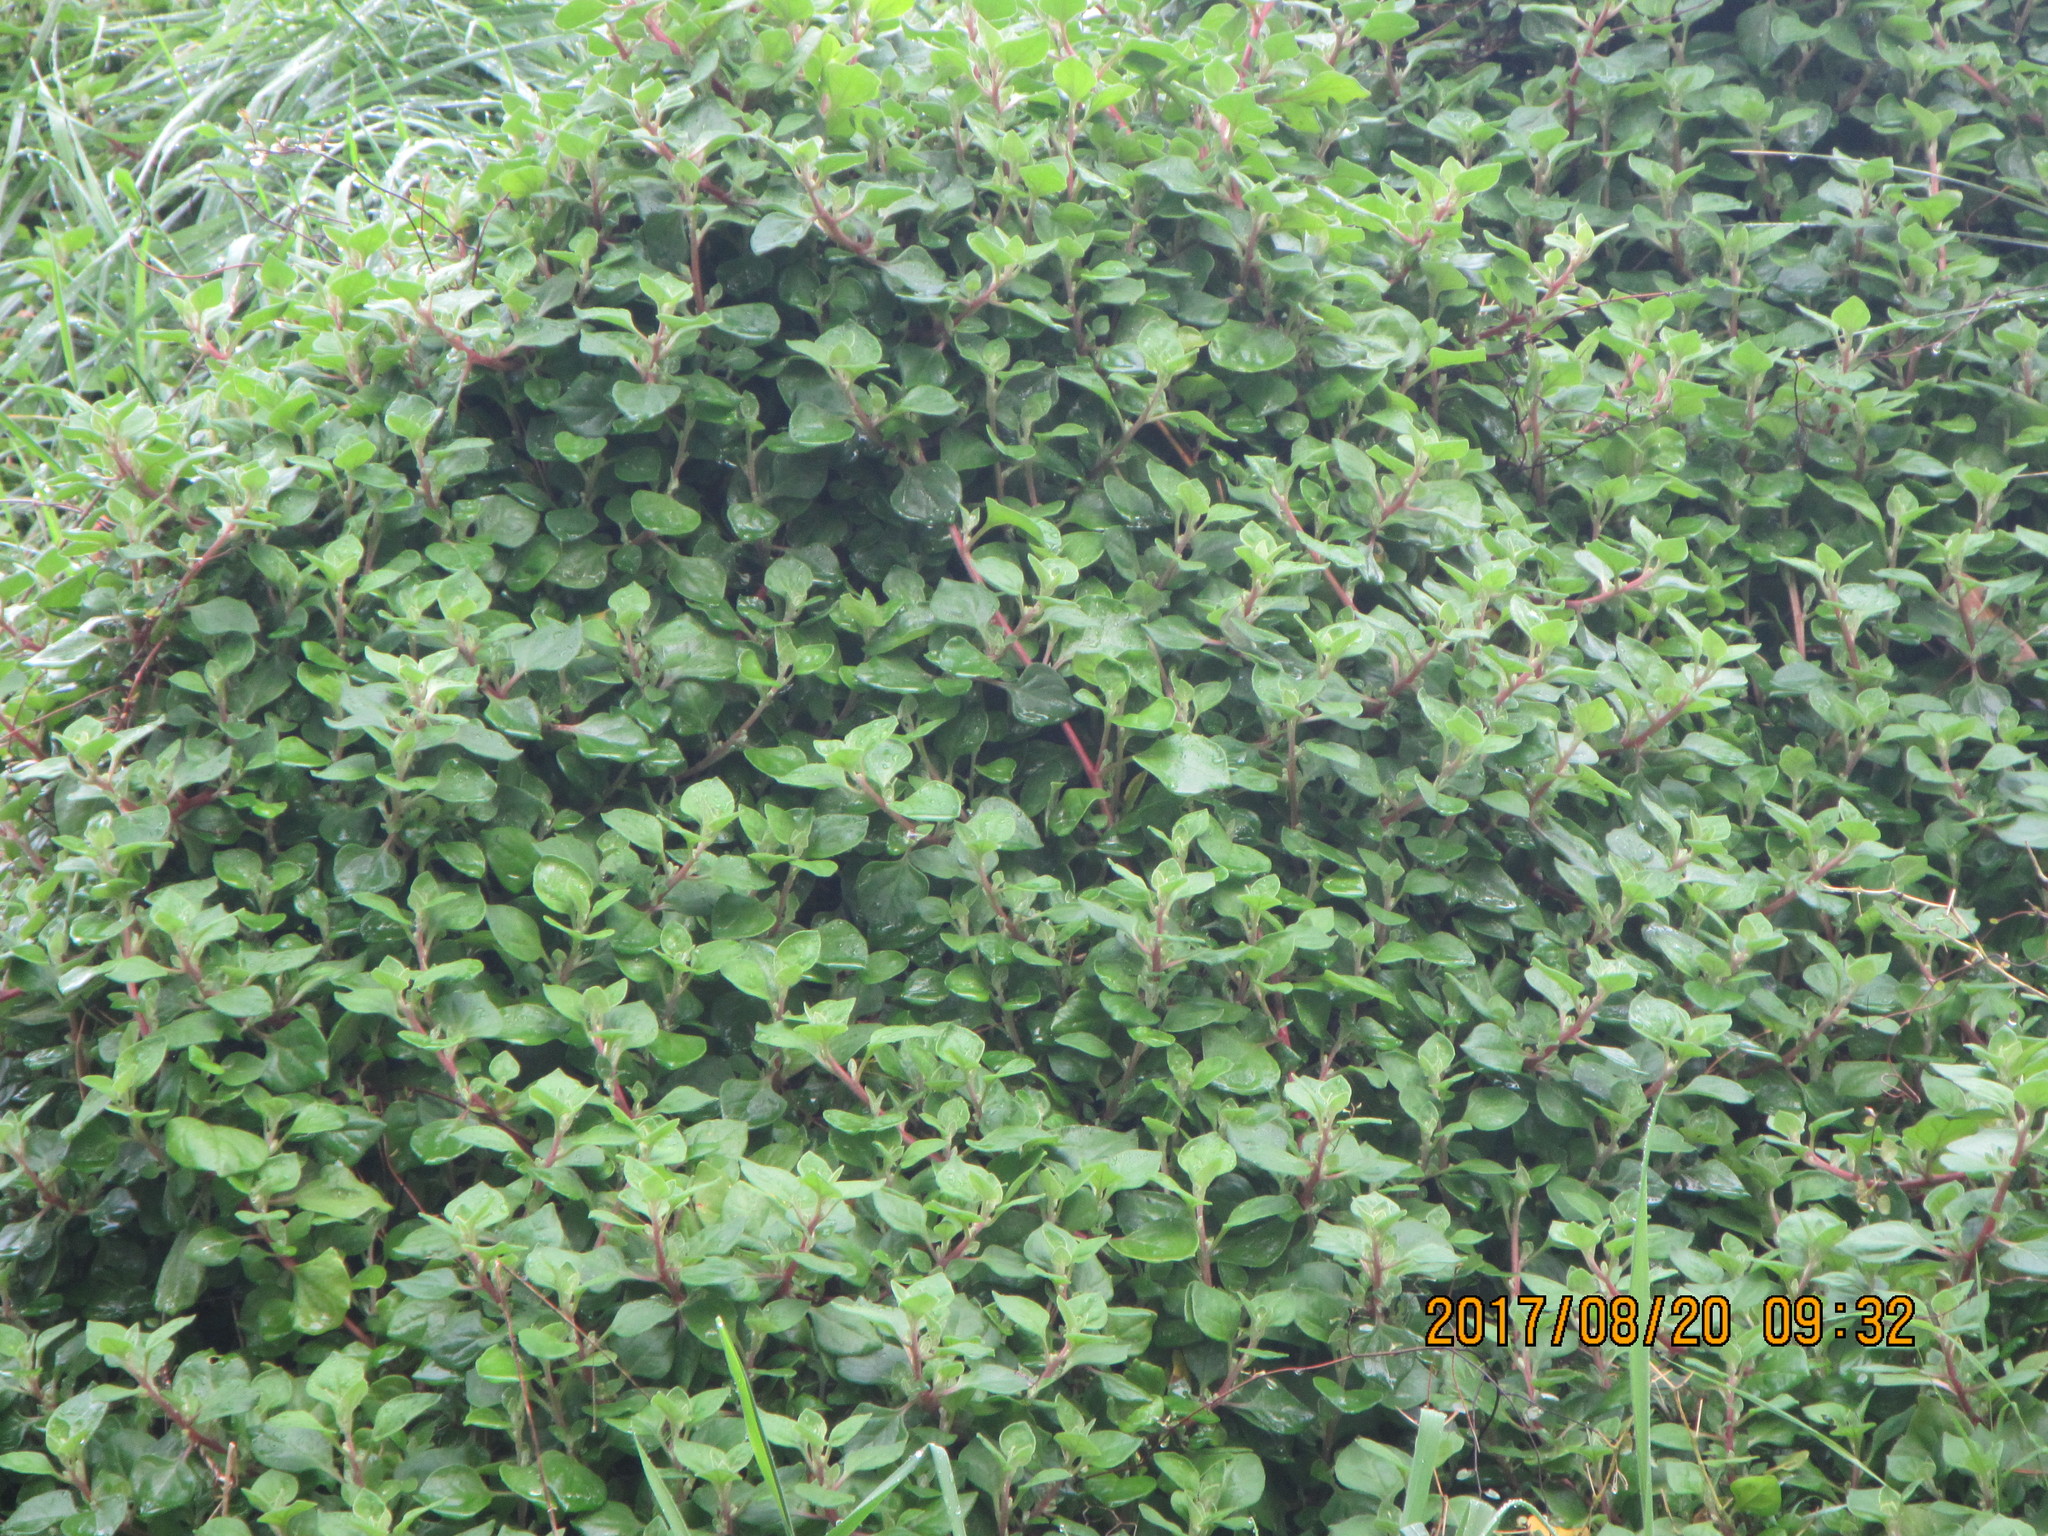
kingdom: Plantae
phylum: Tracheophyta
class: Magnoliopsida
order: Caryophyllales
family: Aizoaceae
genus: Tetragonia
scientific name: Tetragonia implexicoma
